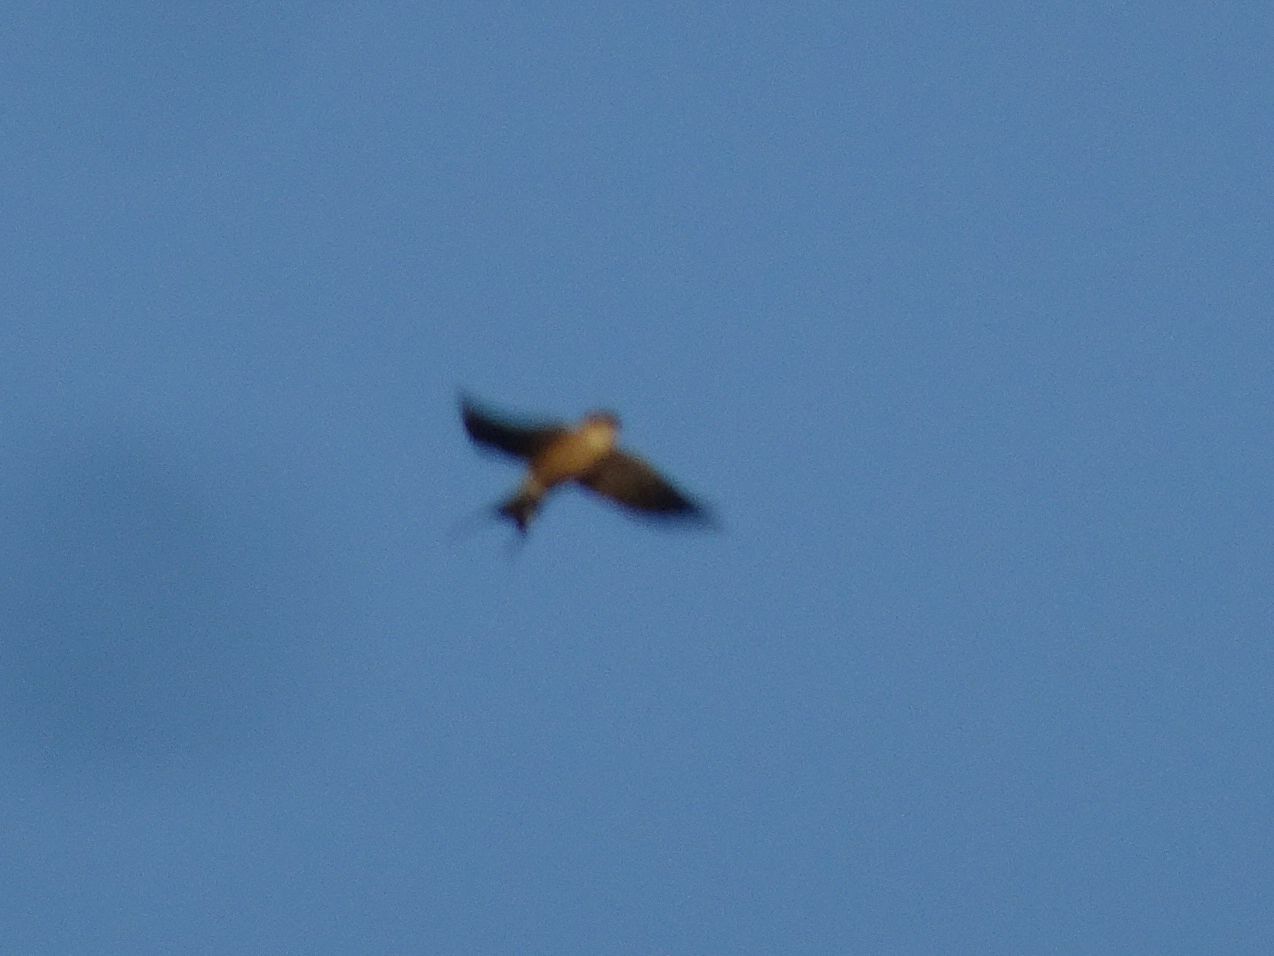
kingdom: Animalia
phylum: Chordata
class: Aves
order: Passeriformes
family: Hirundinidae
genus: Cecropis
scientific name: Cecropis cucullata
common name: Greater striped-swallow
